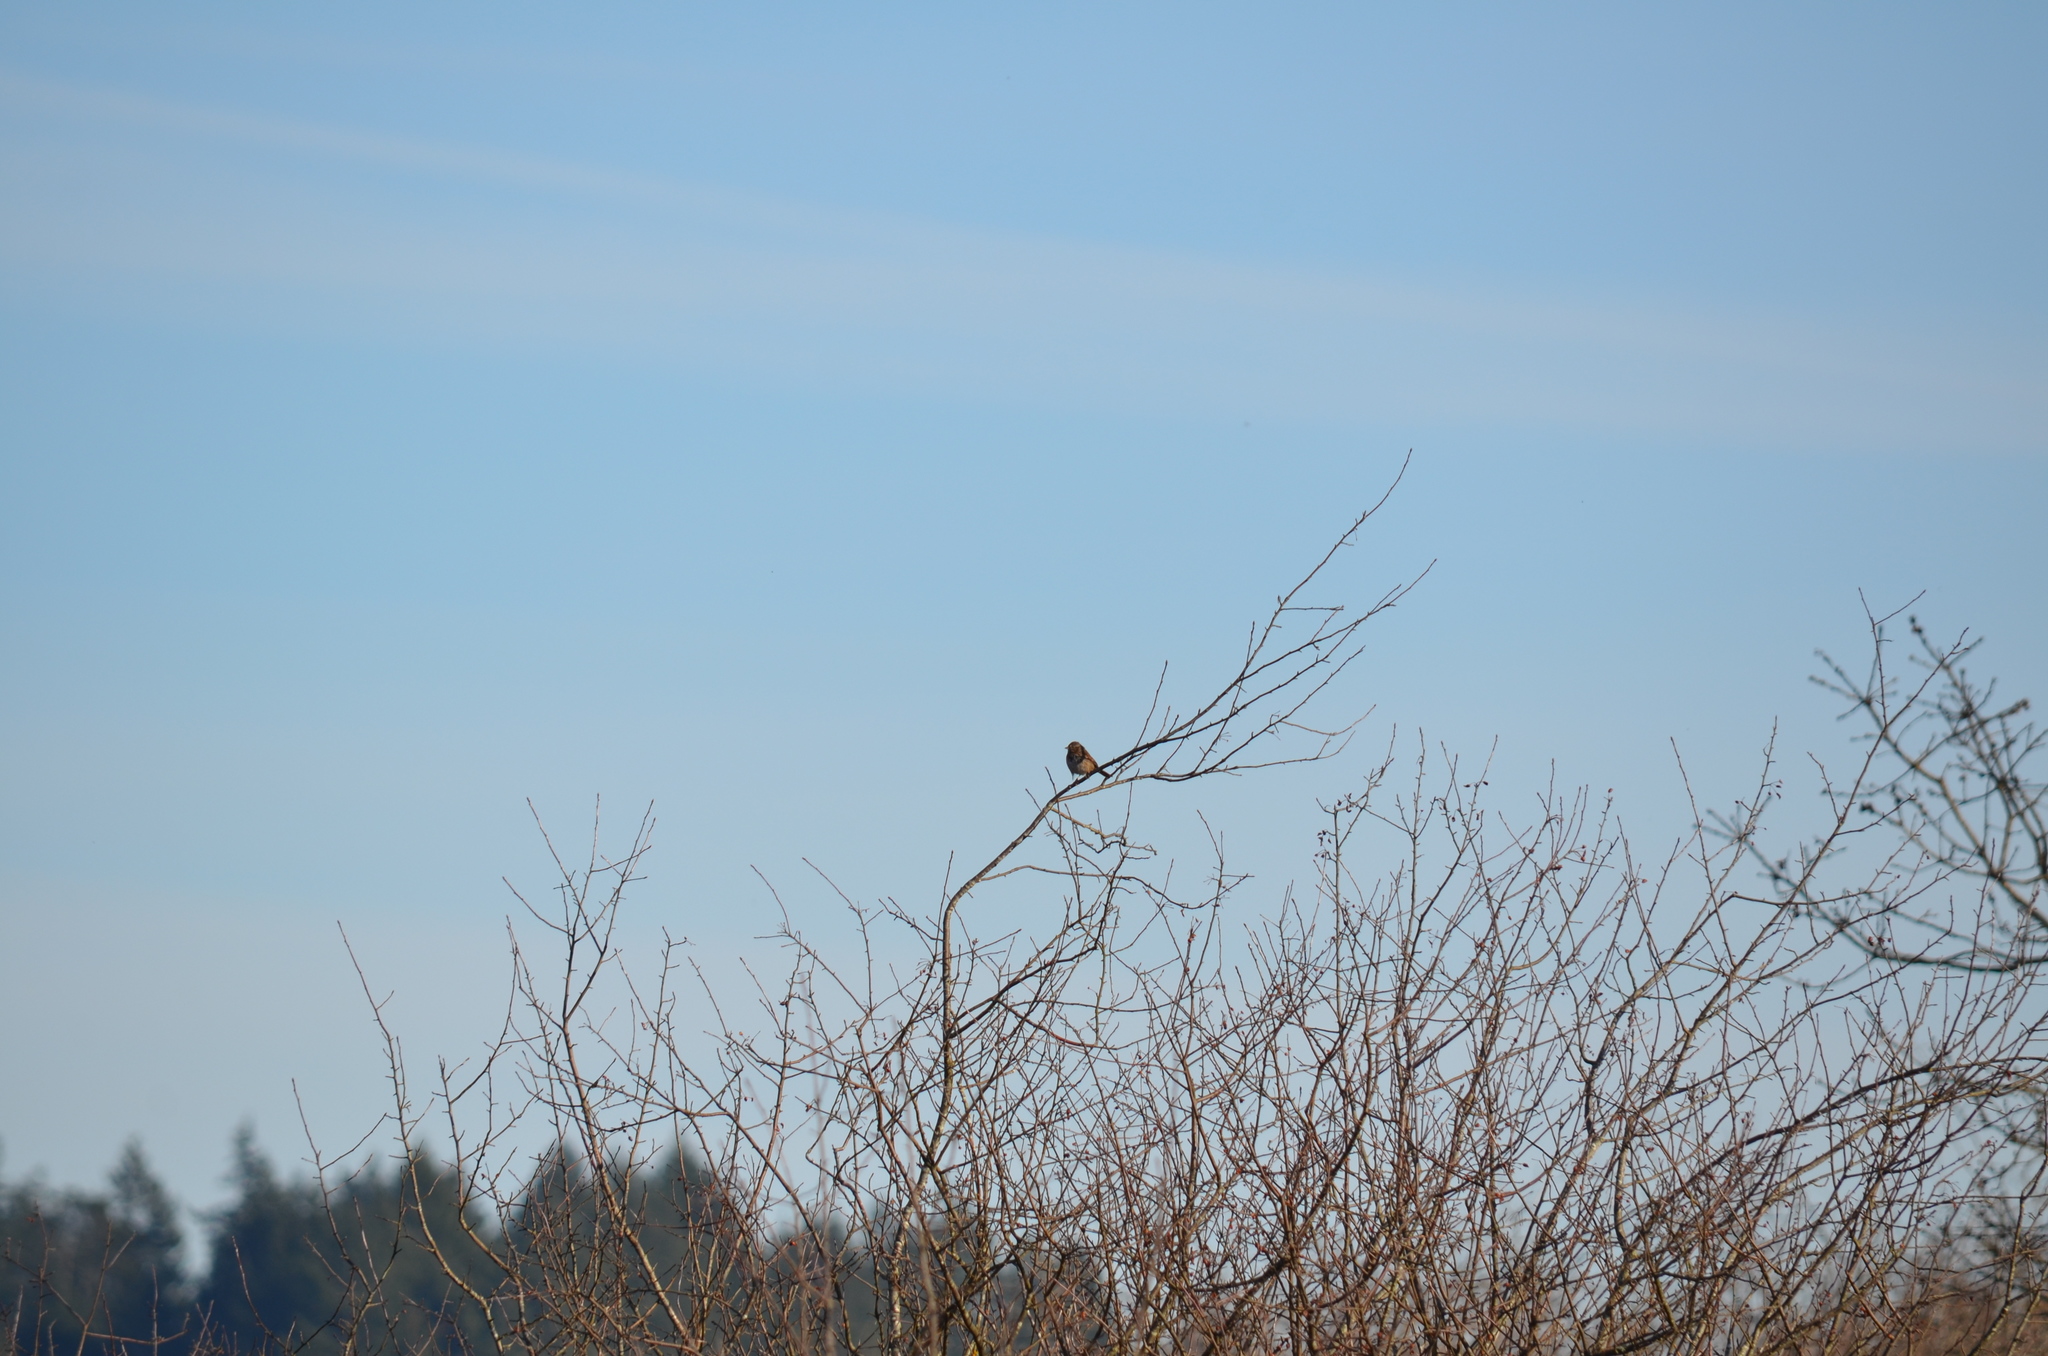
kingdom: Animalia
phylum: Chordata
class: Aves
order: Passeriformes
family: Passerellidae
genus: Zonotrichia
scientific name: Zonotrichia leucophrys
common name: White-crowned sparrow
